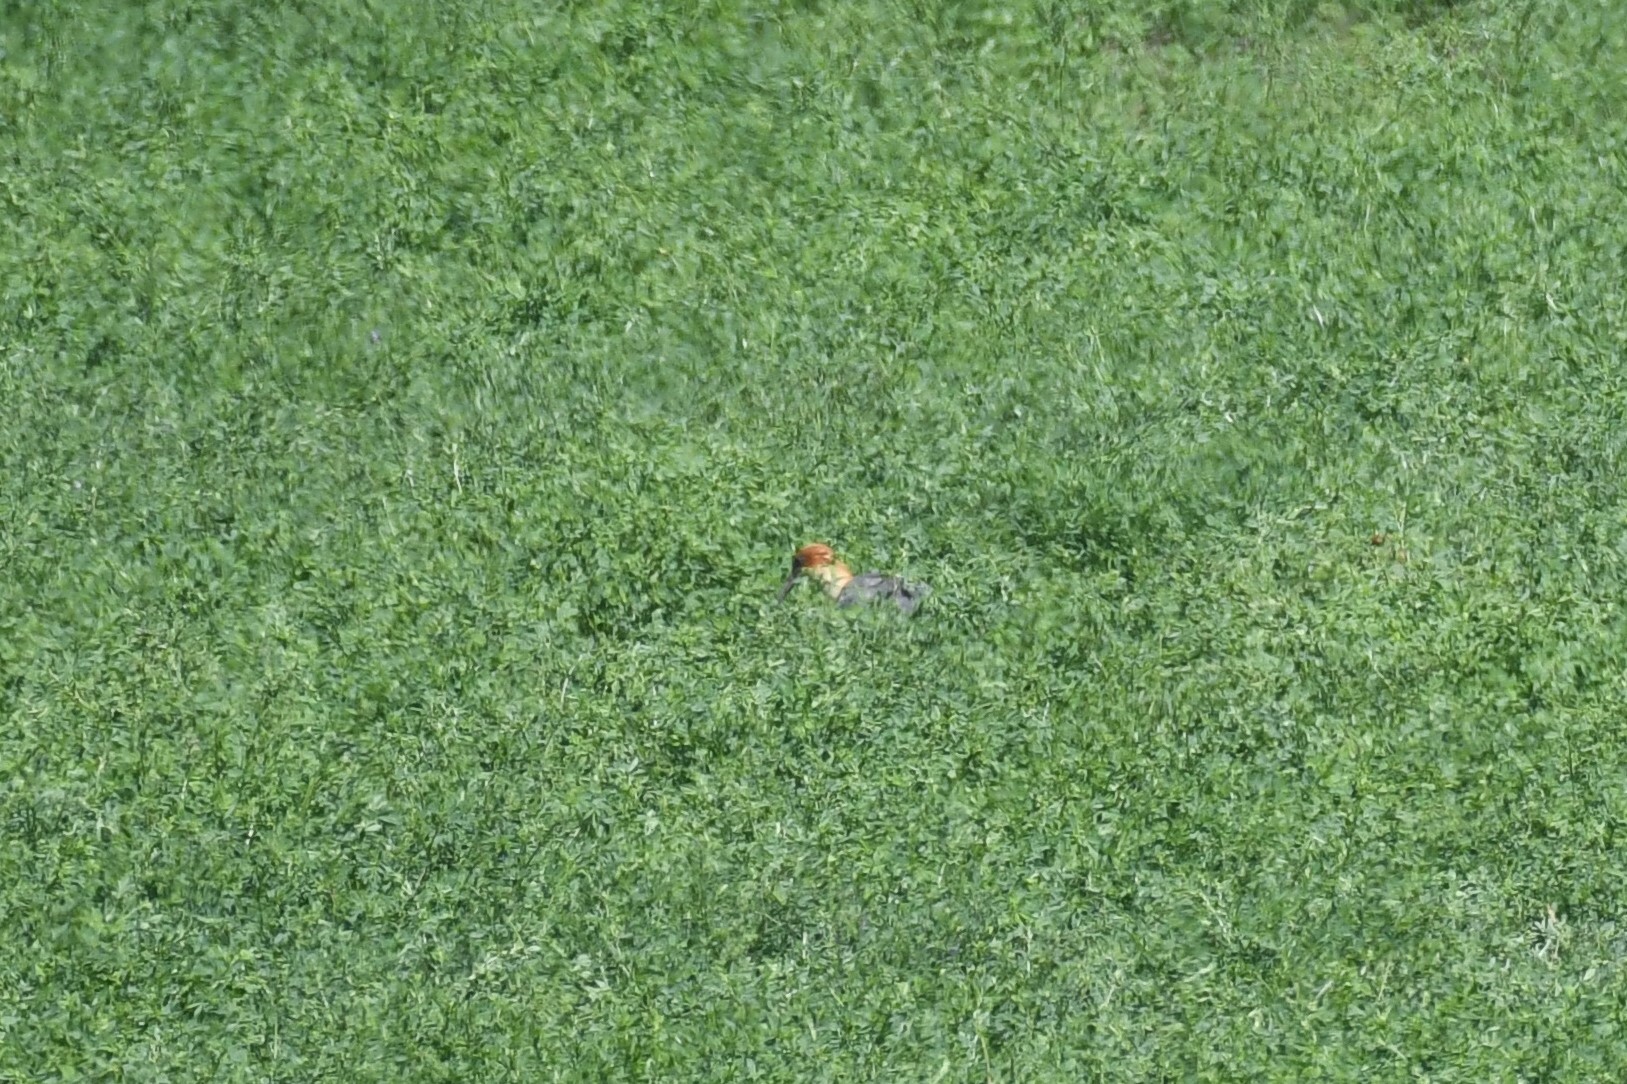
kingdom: Animalia
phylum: Chordata
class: Aves
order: Pelecaniformes
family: Threskiornithidae
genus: Theristicus
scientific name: Theristicus melanopis
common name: Black-faced ibis
